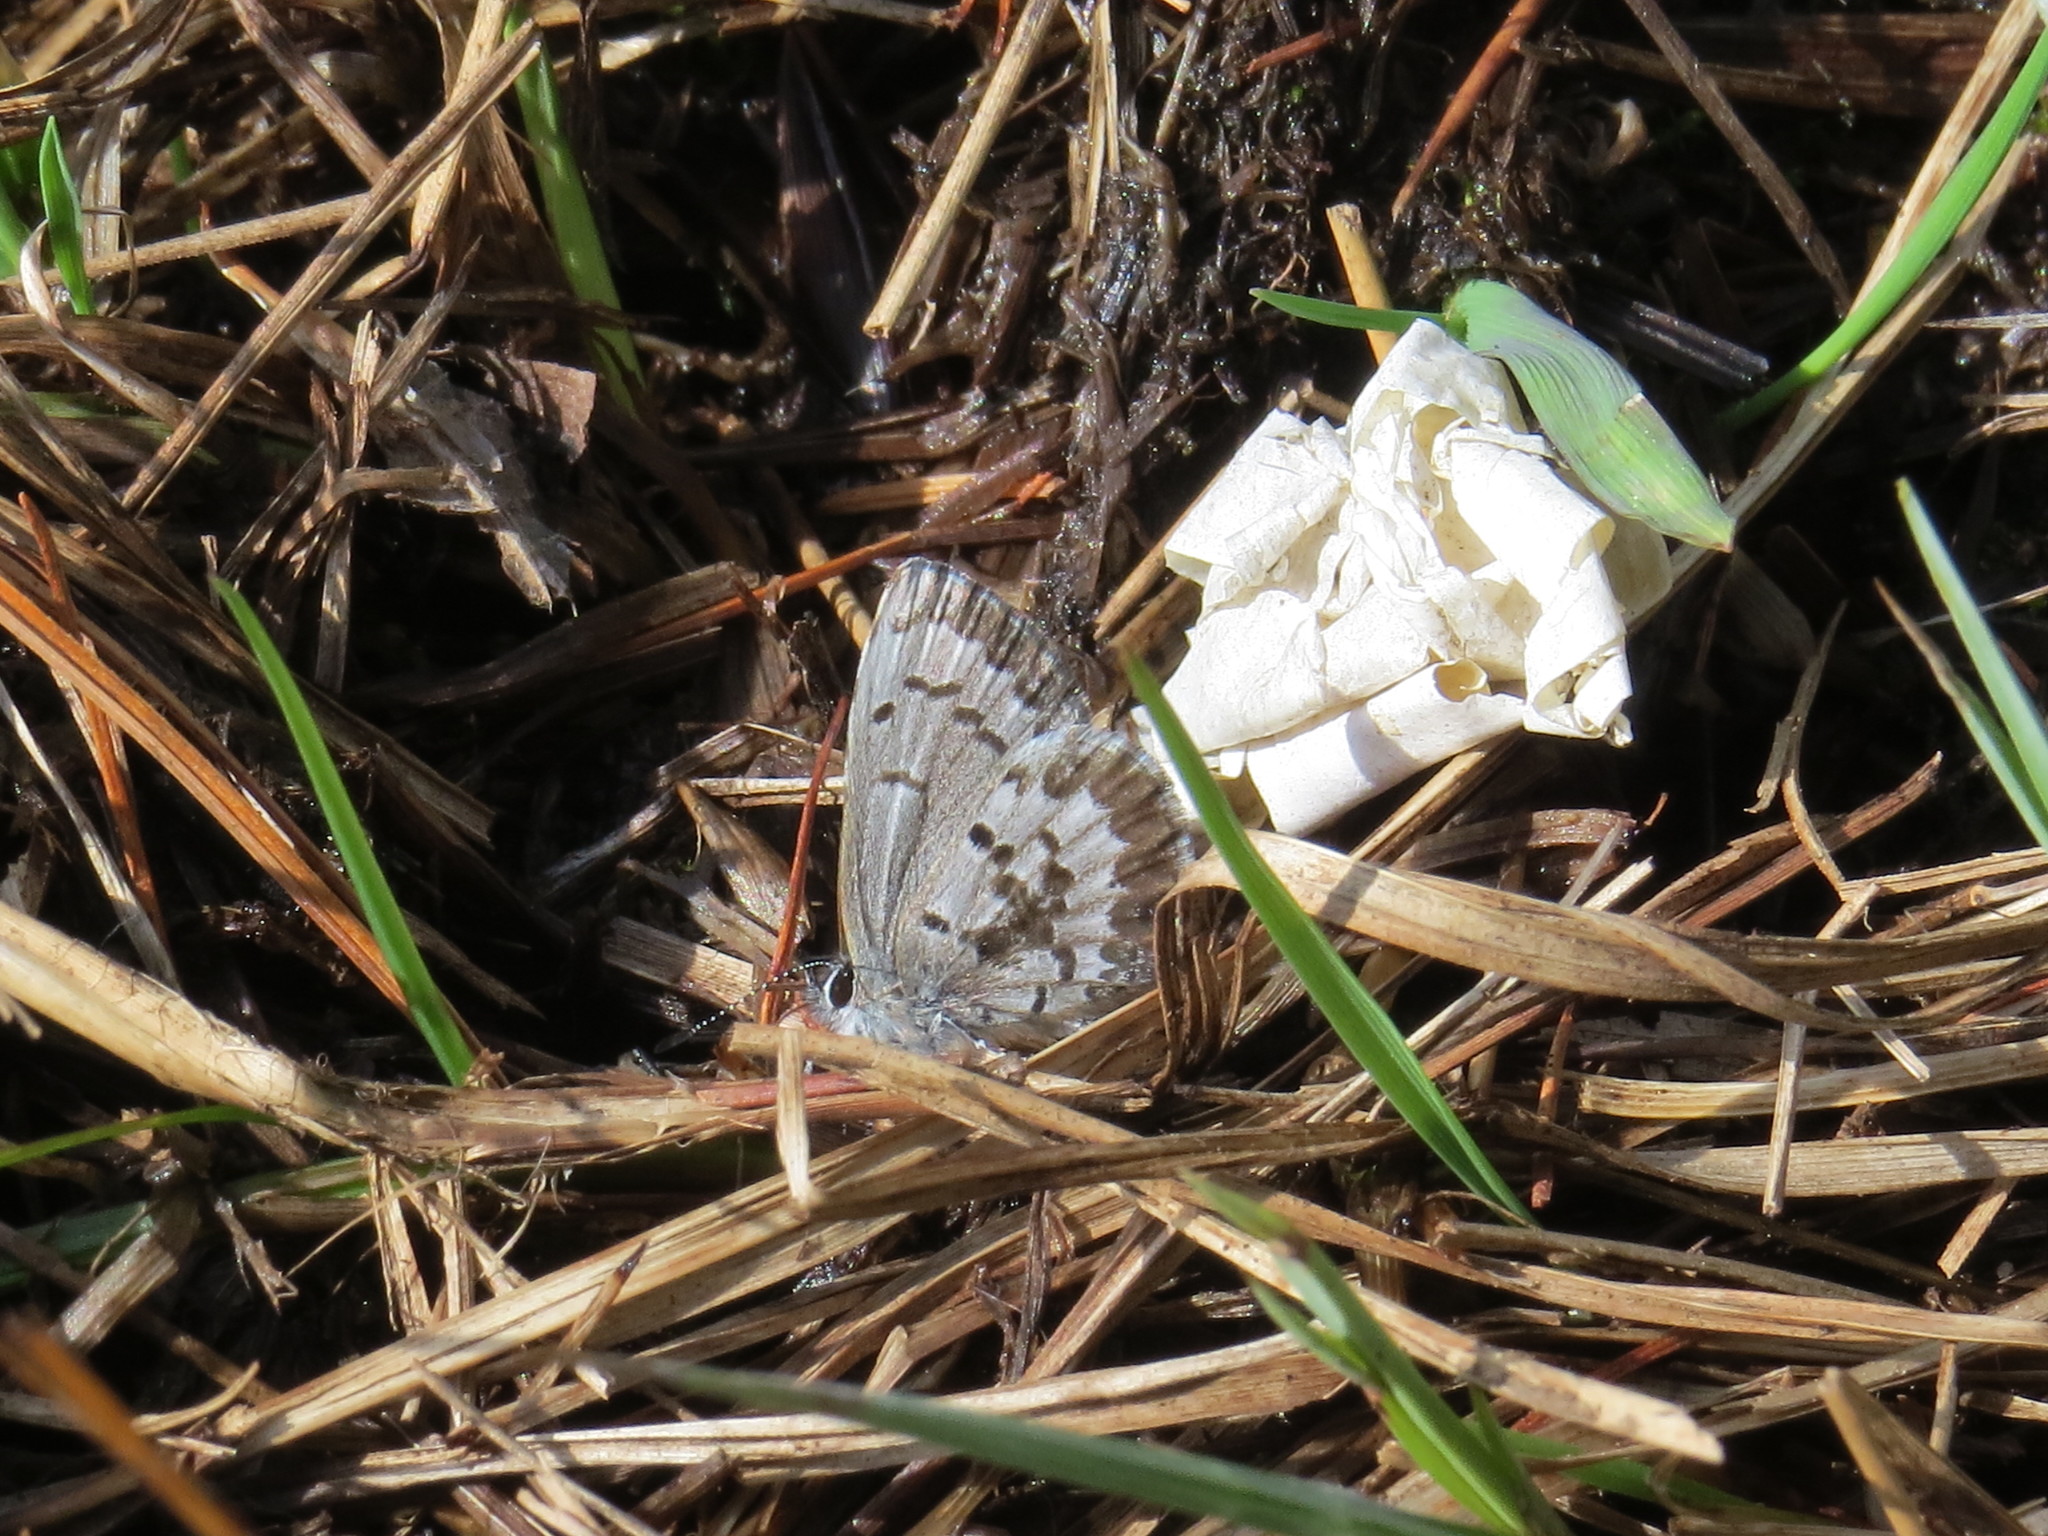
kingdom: Animalia
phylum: Arthropoda
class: Insecta
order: Lepidoptera
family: Lycaenidae
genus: Celastrina
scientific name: Celastrina lucia
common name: Lucia azure
